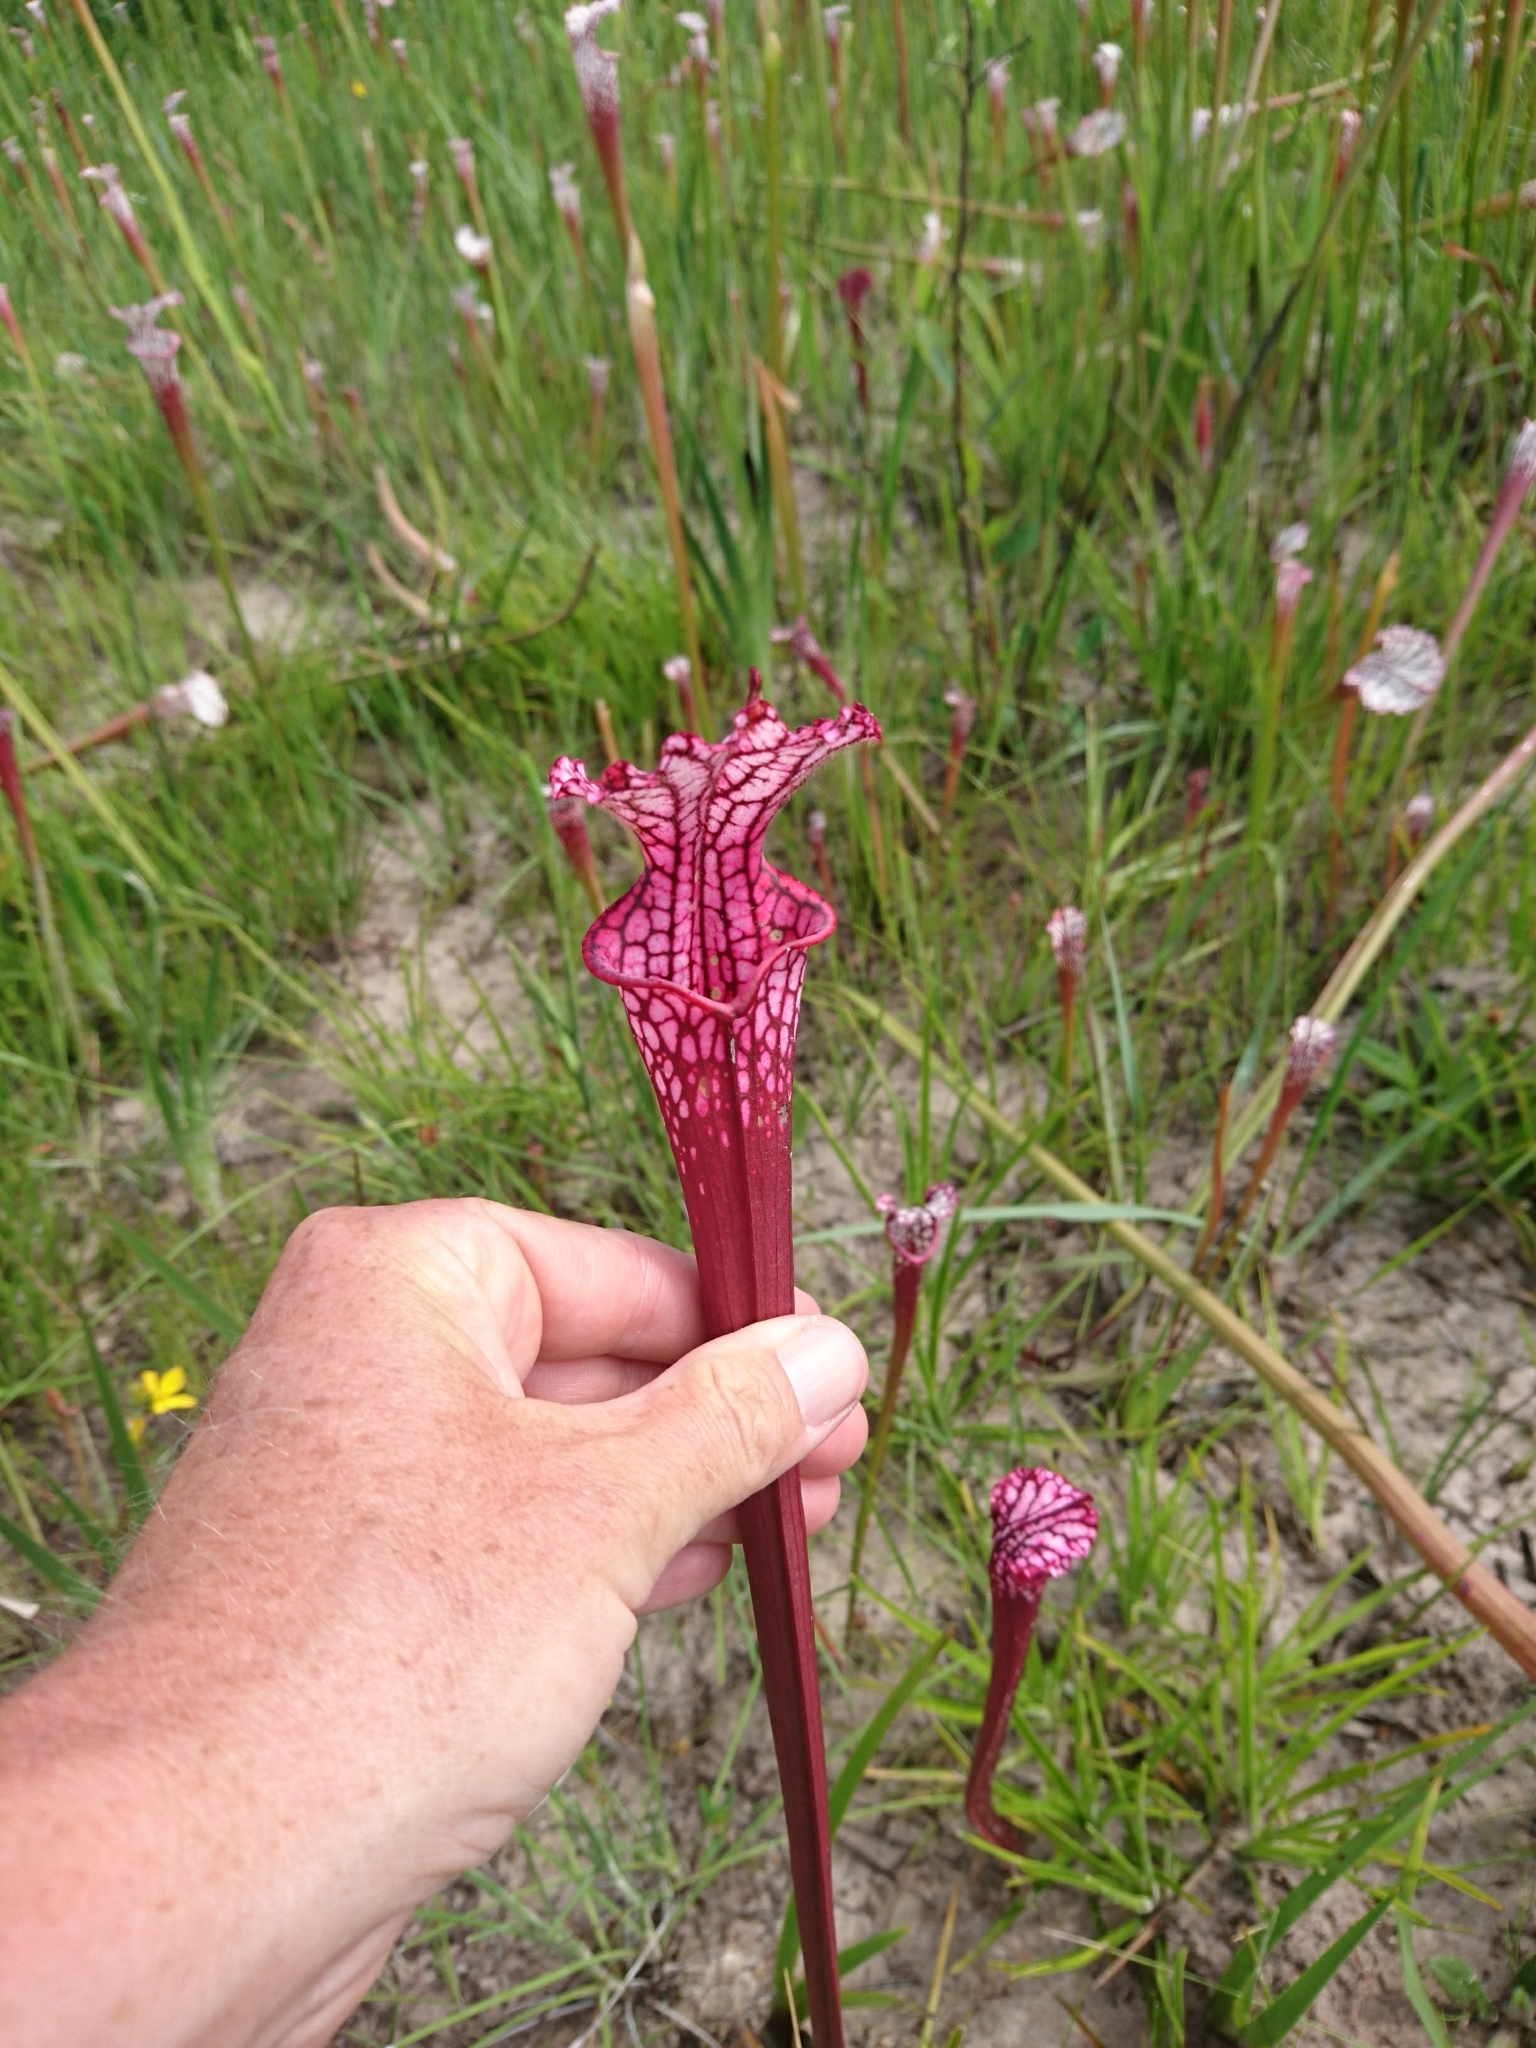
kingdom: Plantae
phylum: Tracheophyta
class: Magnoliopsida
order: Ericales
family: Sarraceniaceae
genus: Sarracenia
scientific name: Sarracenia leucophylla
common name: Purple trumpetleaf
